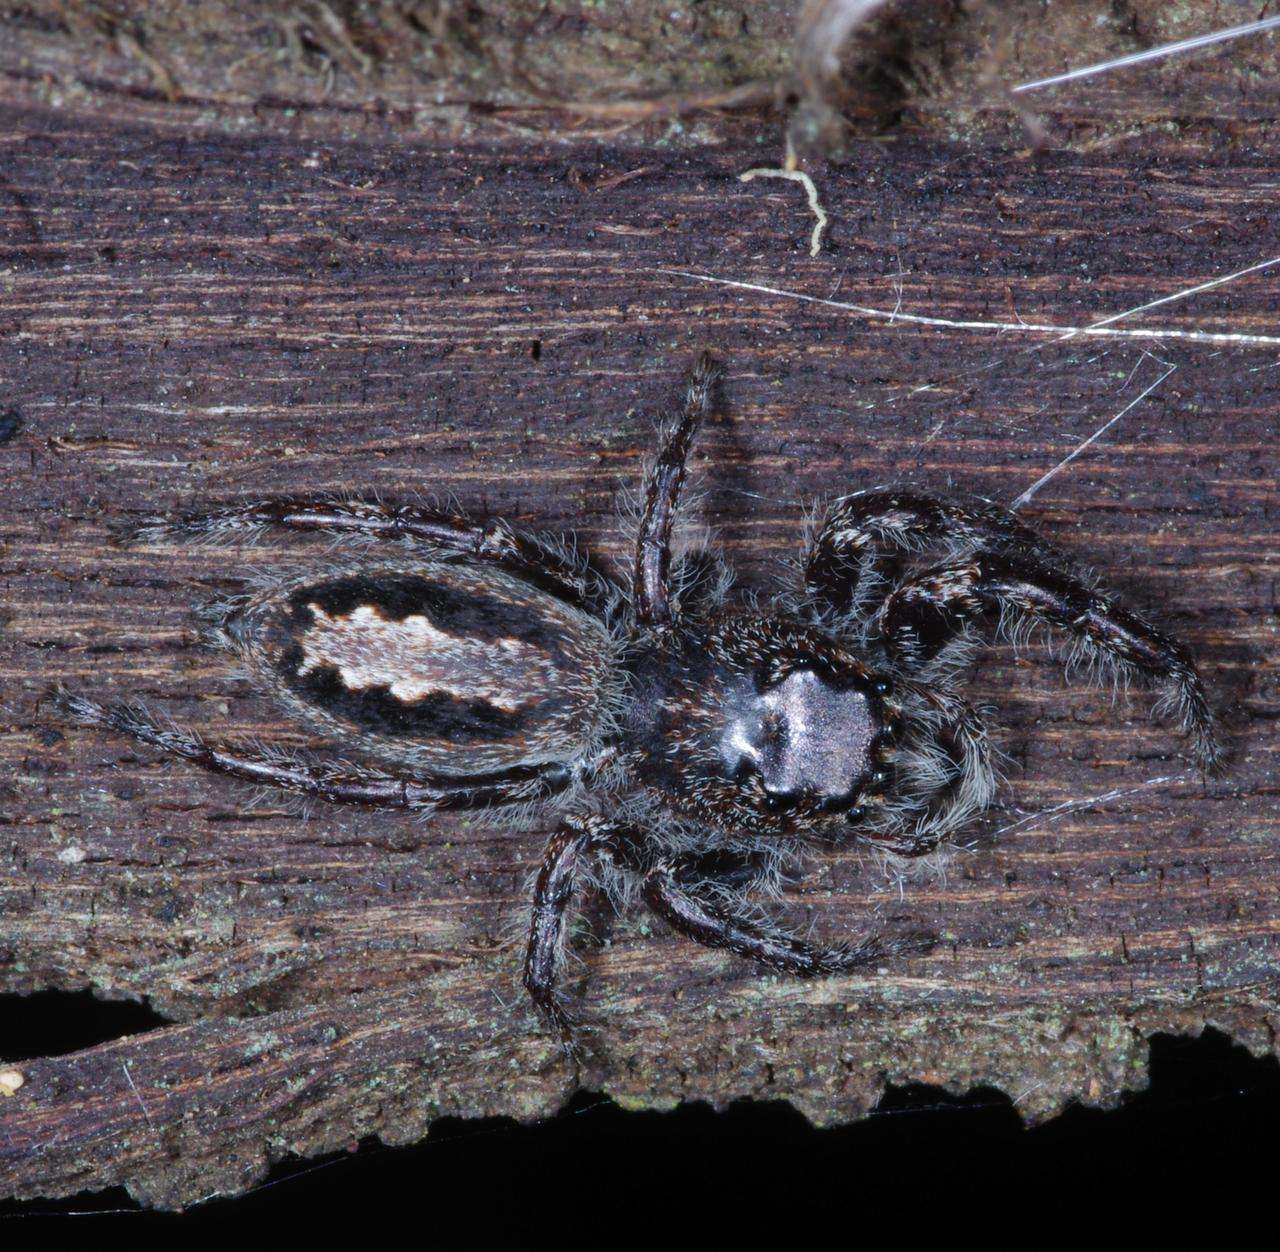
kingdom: Animalia
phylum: Arthropoda
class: Arachnida
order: Araneae
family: Salticidae
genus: Sandalodes
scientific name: Sandalodes superbus
